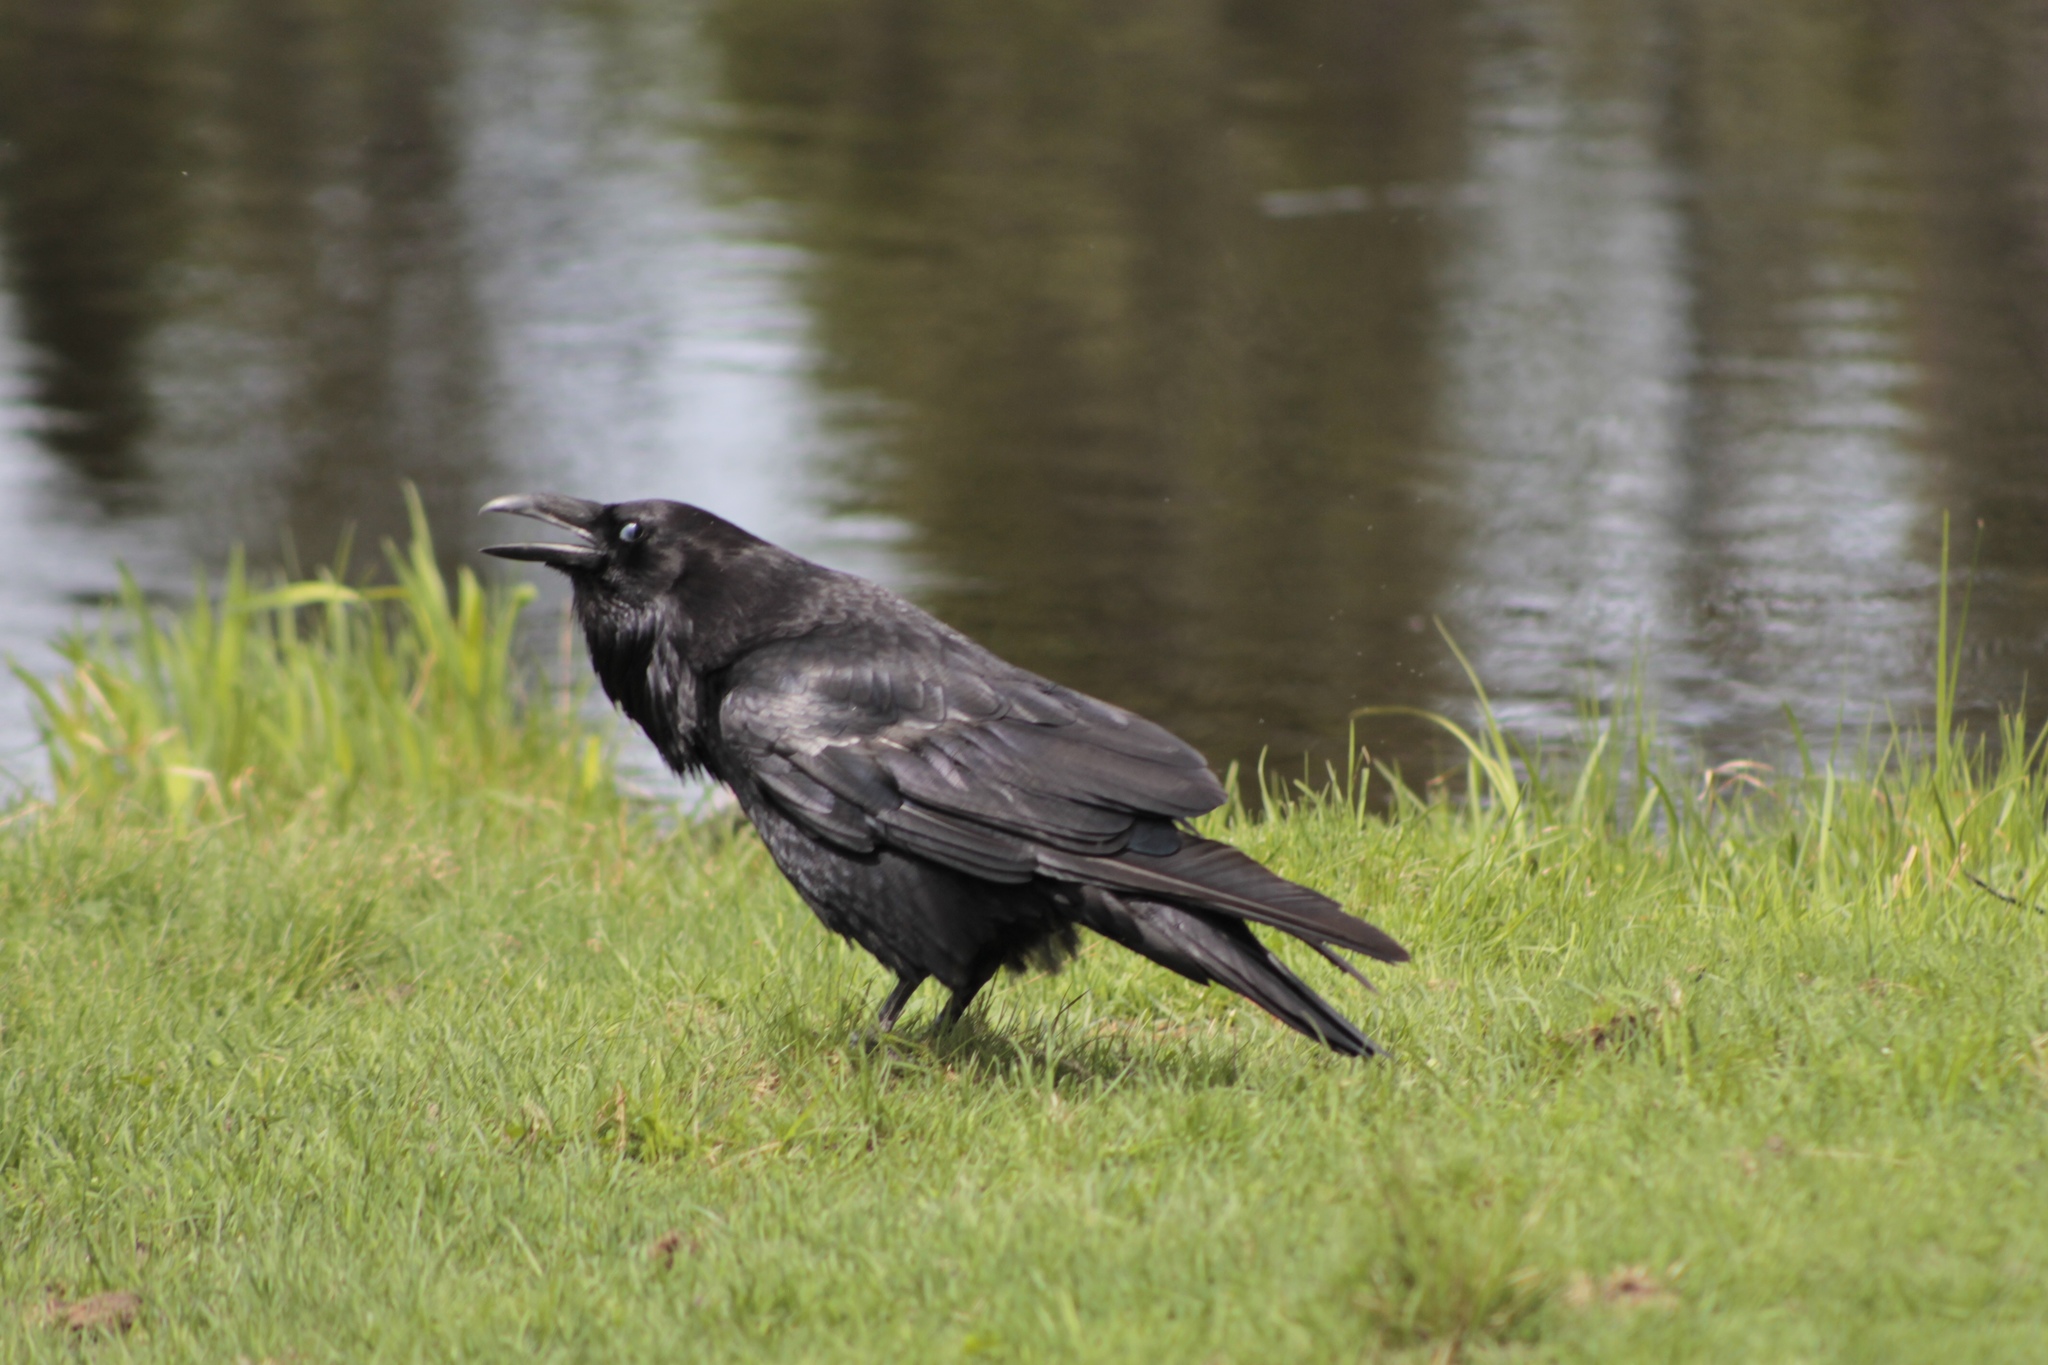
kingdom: Animalia
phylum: Chordata
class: Aves
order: Passeriformes
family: Corvidae
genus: Corvus
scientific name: Corvus corax
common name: Common raven
